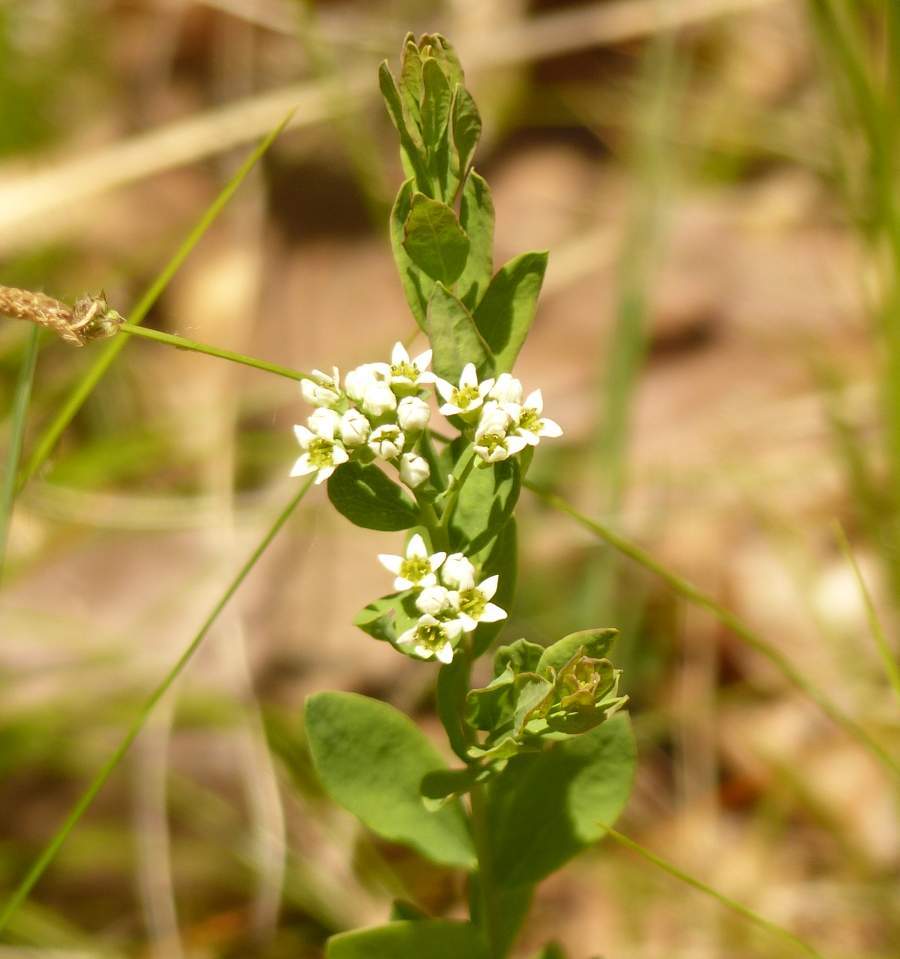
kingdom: Plantae
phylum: Tracheophyta
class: Magnoliopsida
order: Santalales
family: Comandraceae
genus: Comandra
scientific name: Comandra umbellata
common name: Bastard toadflax
